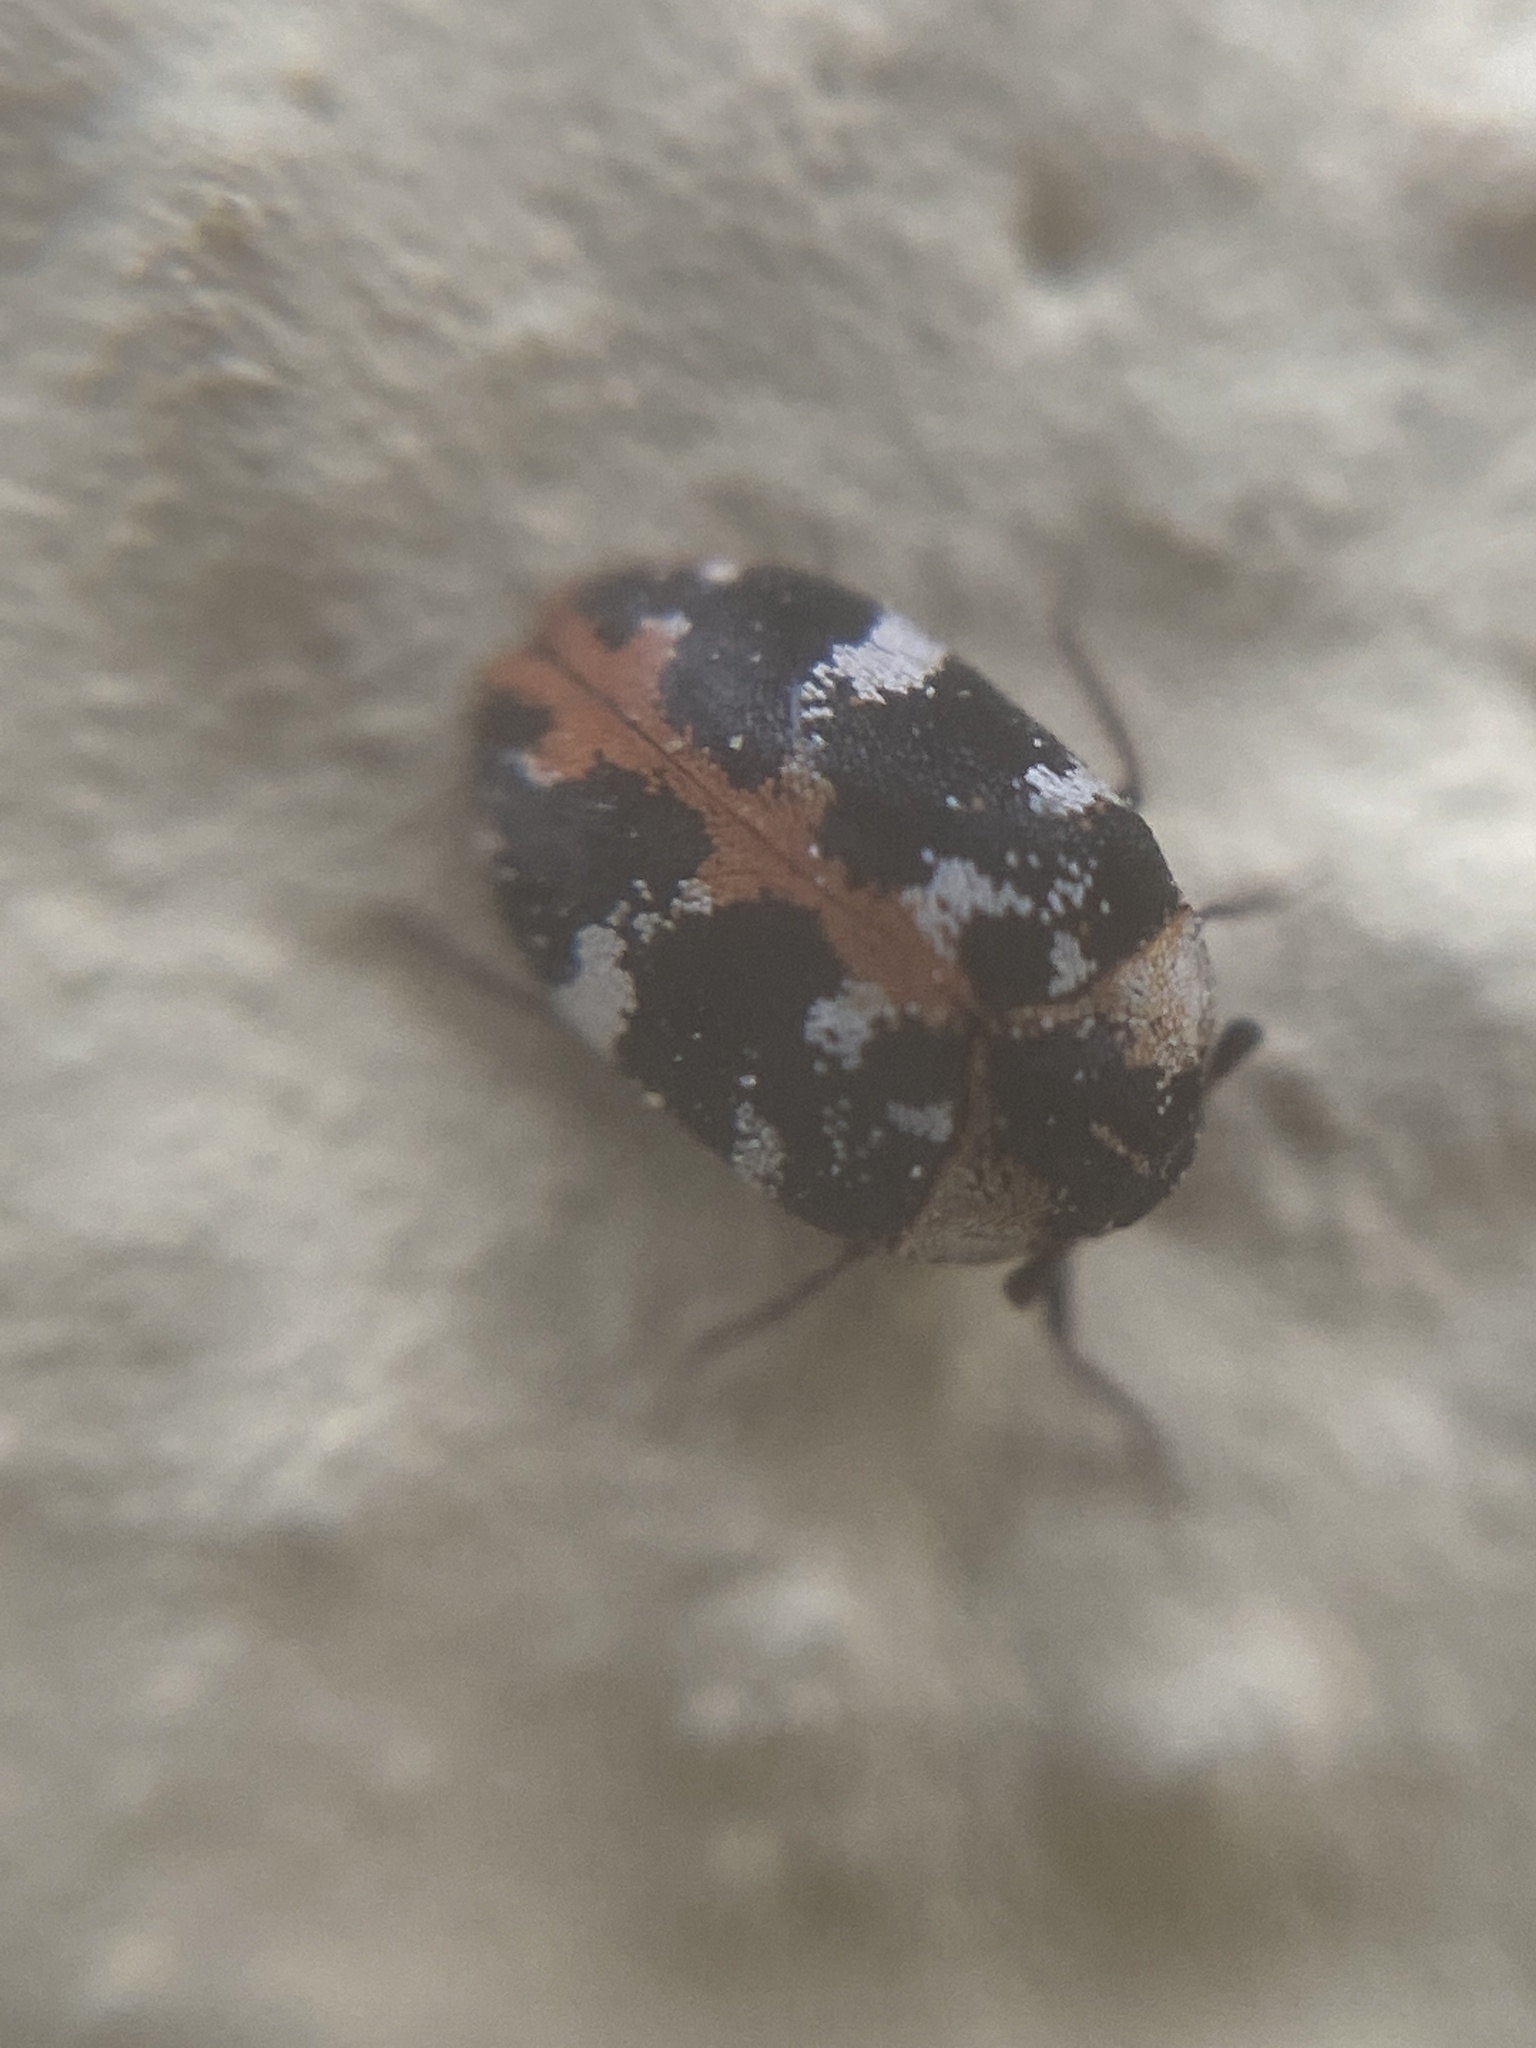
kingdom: Animalia
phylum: Arthropoda
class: Insecta
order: Coleoptera
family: Dermestidae
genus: Anthrenus
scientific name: Anthrenus scrophulariae
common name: Buffalo carpet beetle
